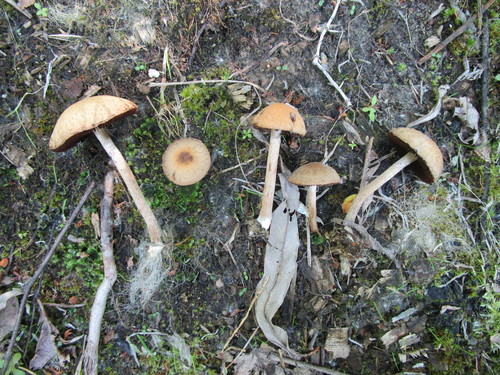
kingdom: Fungi
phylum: Basidiomycota
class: Agaricomycetes
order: Agaricales
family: Psathyrellaceae
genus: Lacrymaria
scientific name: Lacrymaria
